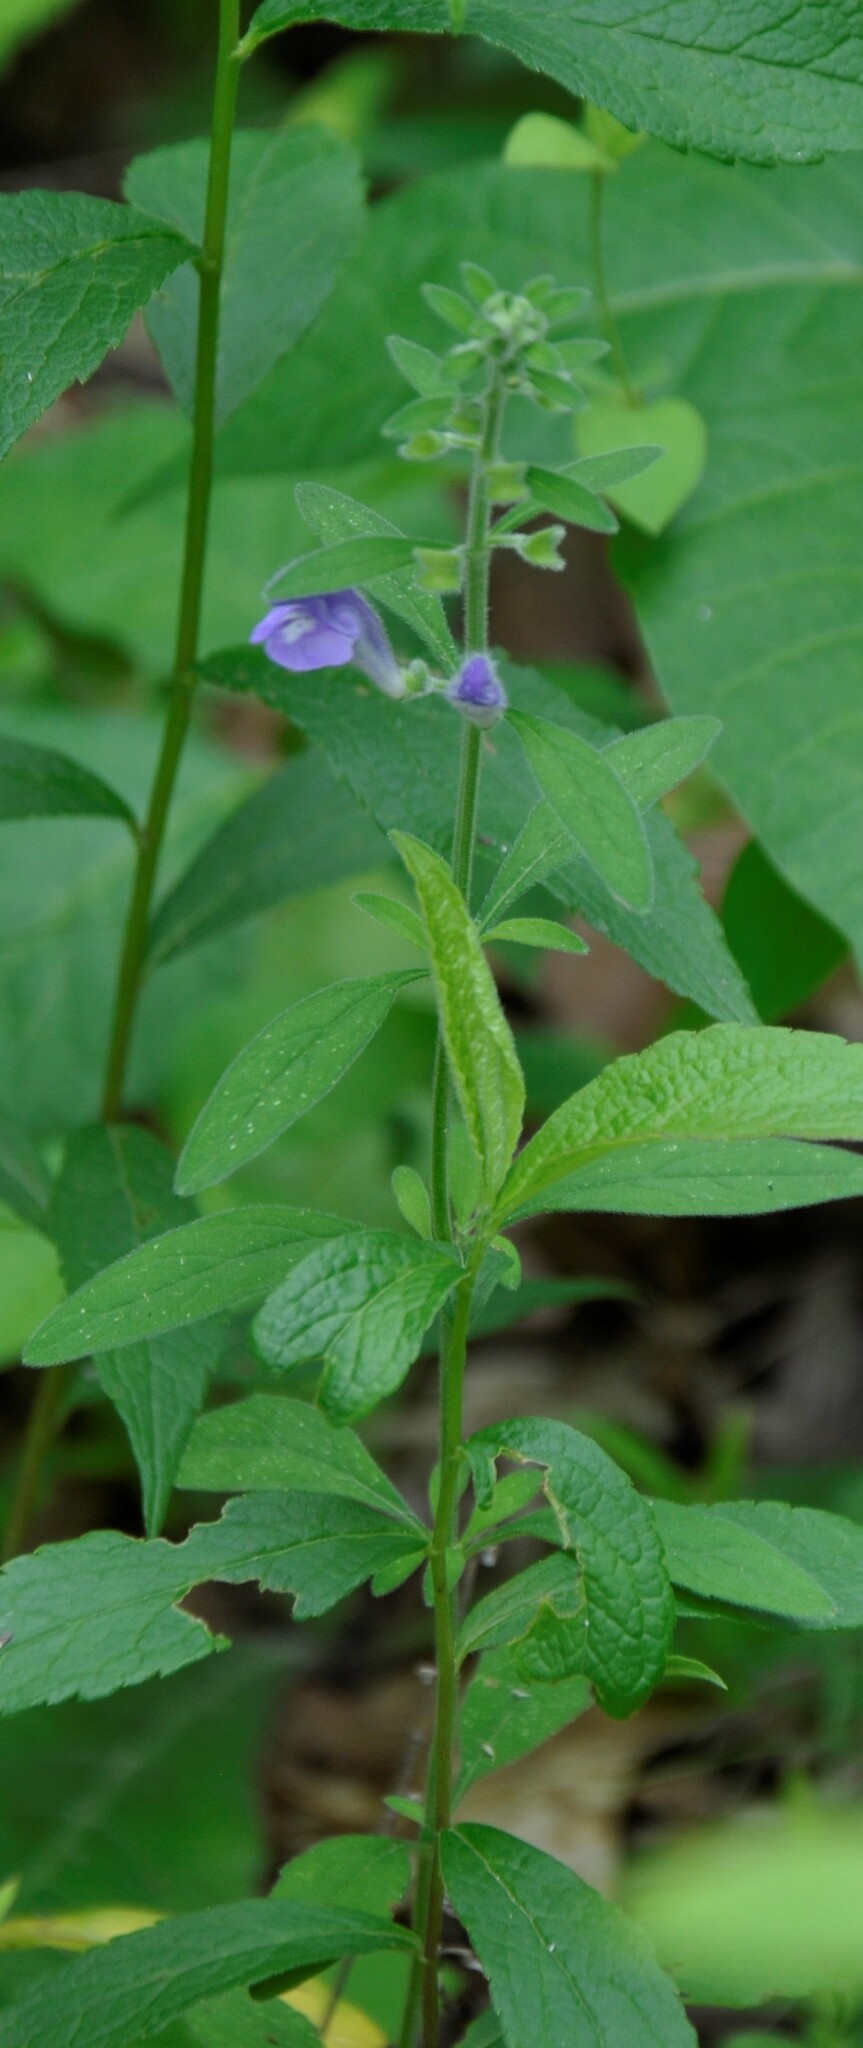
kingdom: Plantae
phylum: Tracheophyta
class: Magnoliopsida
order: Lamiales
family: Lamiaceae
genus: Scutellaria
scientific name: Scutellaria integrifolia
